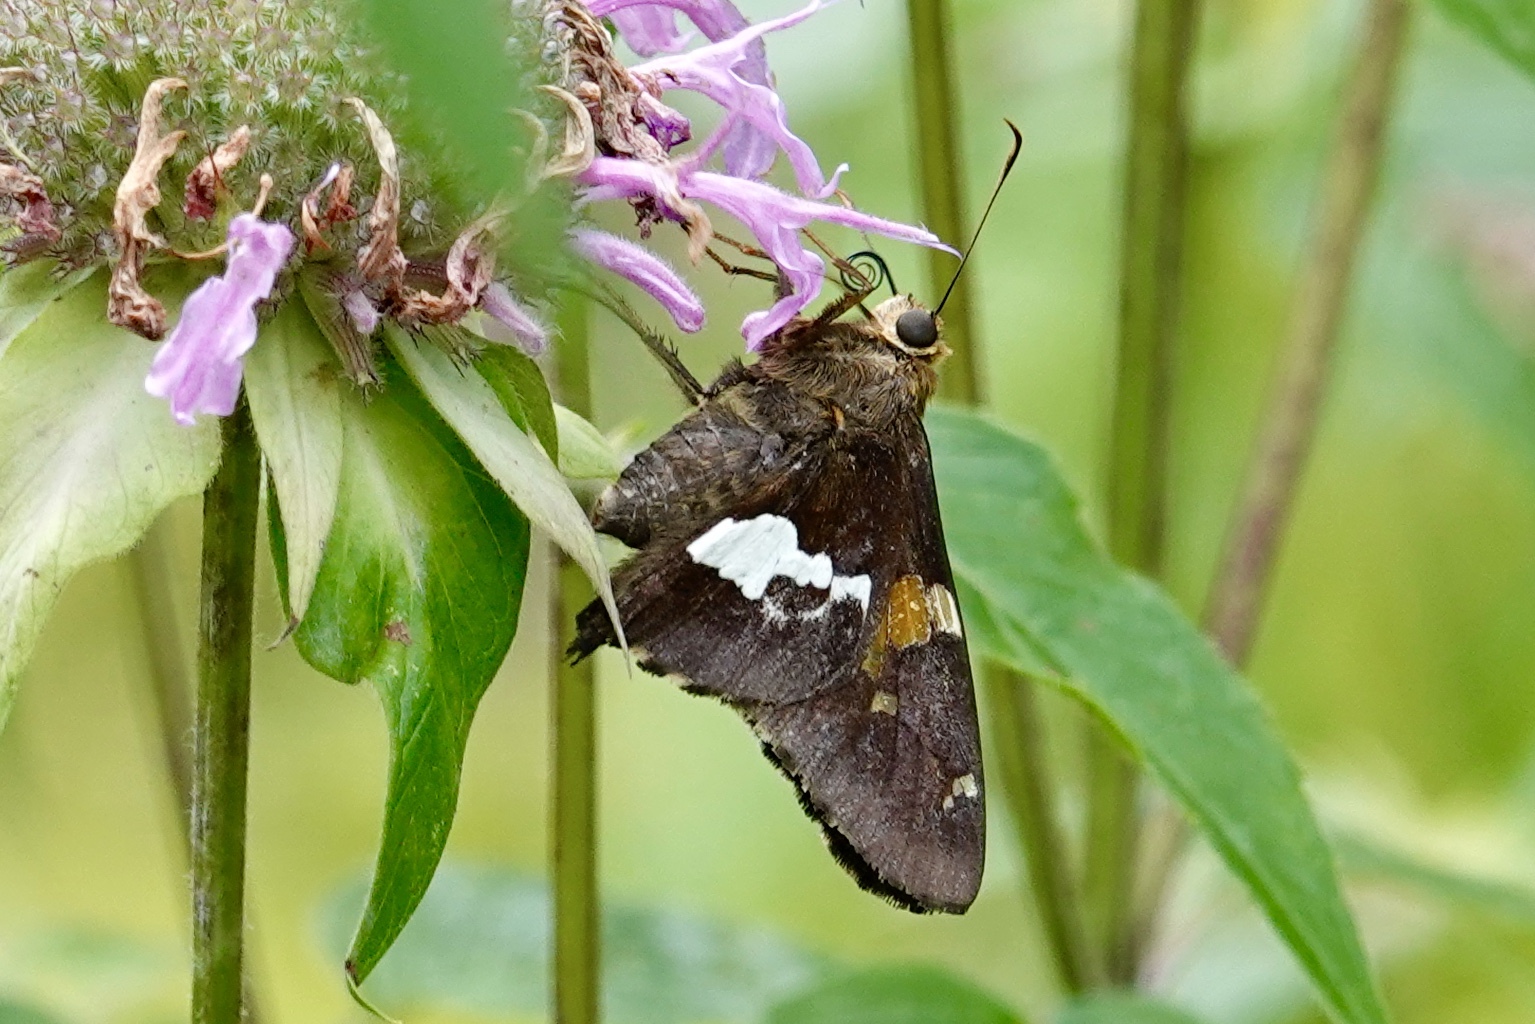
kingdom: Animalia
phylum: Arthropoda
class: Insecta
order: Lepidoptera
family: Hesperiidae
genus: Epargyreus
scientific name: Epargyreus clarus
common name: Silver-spotted skipper
